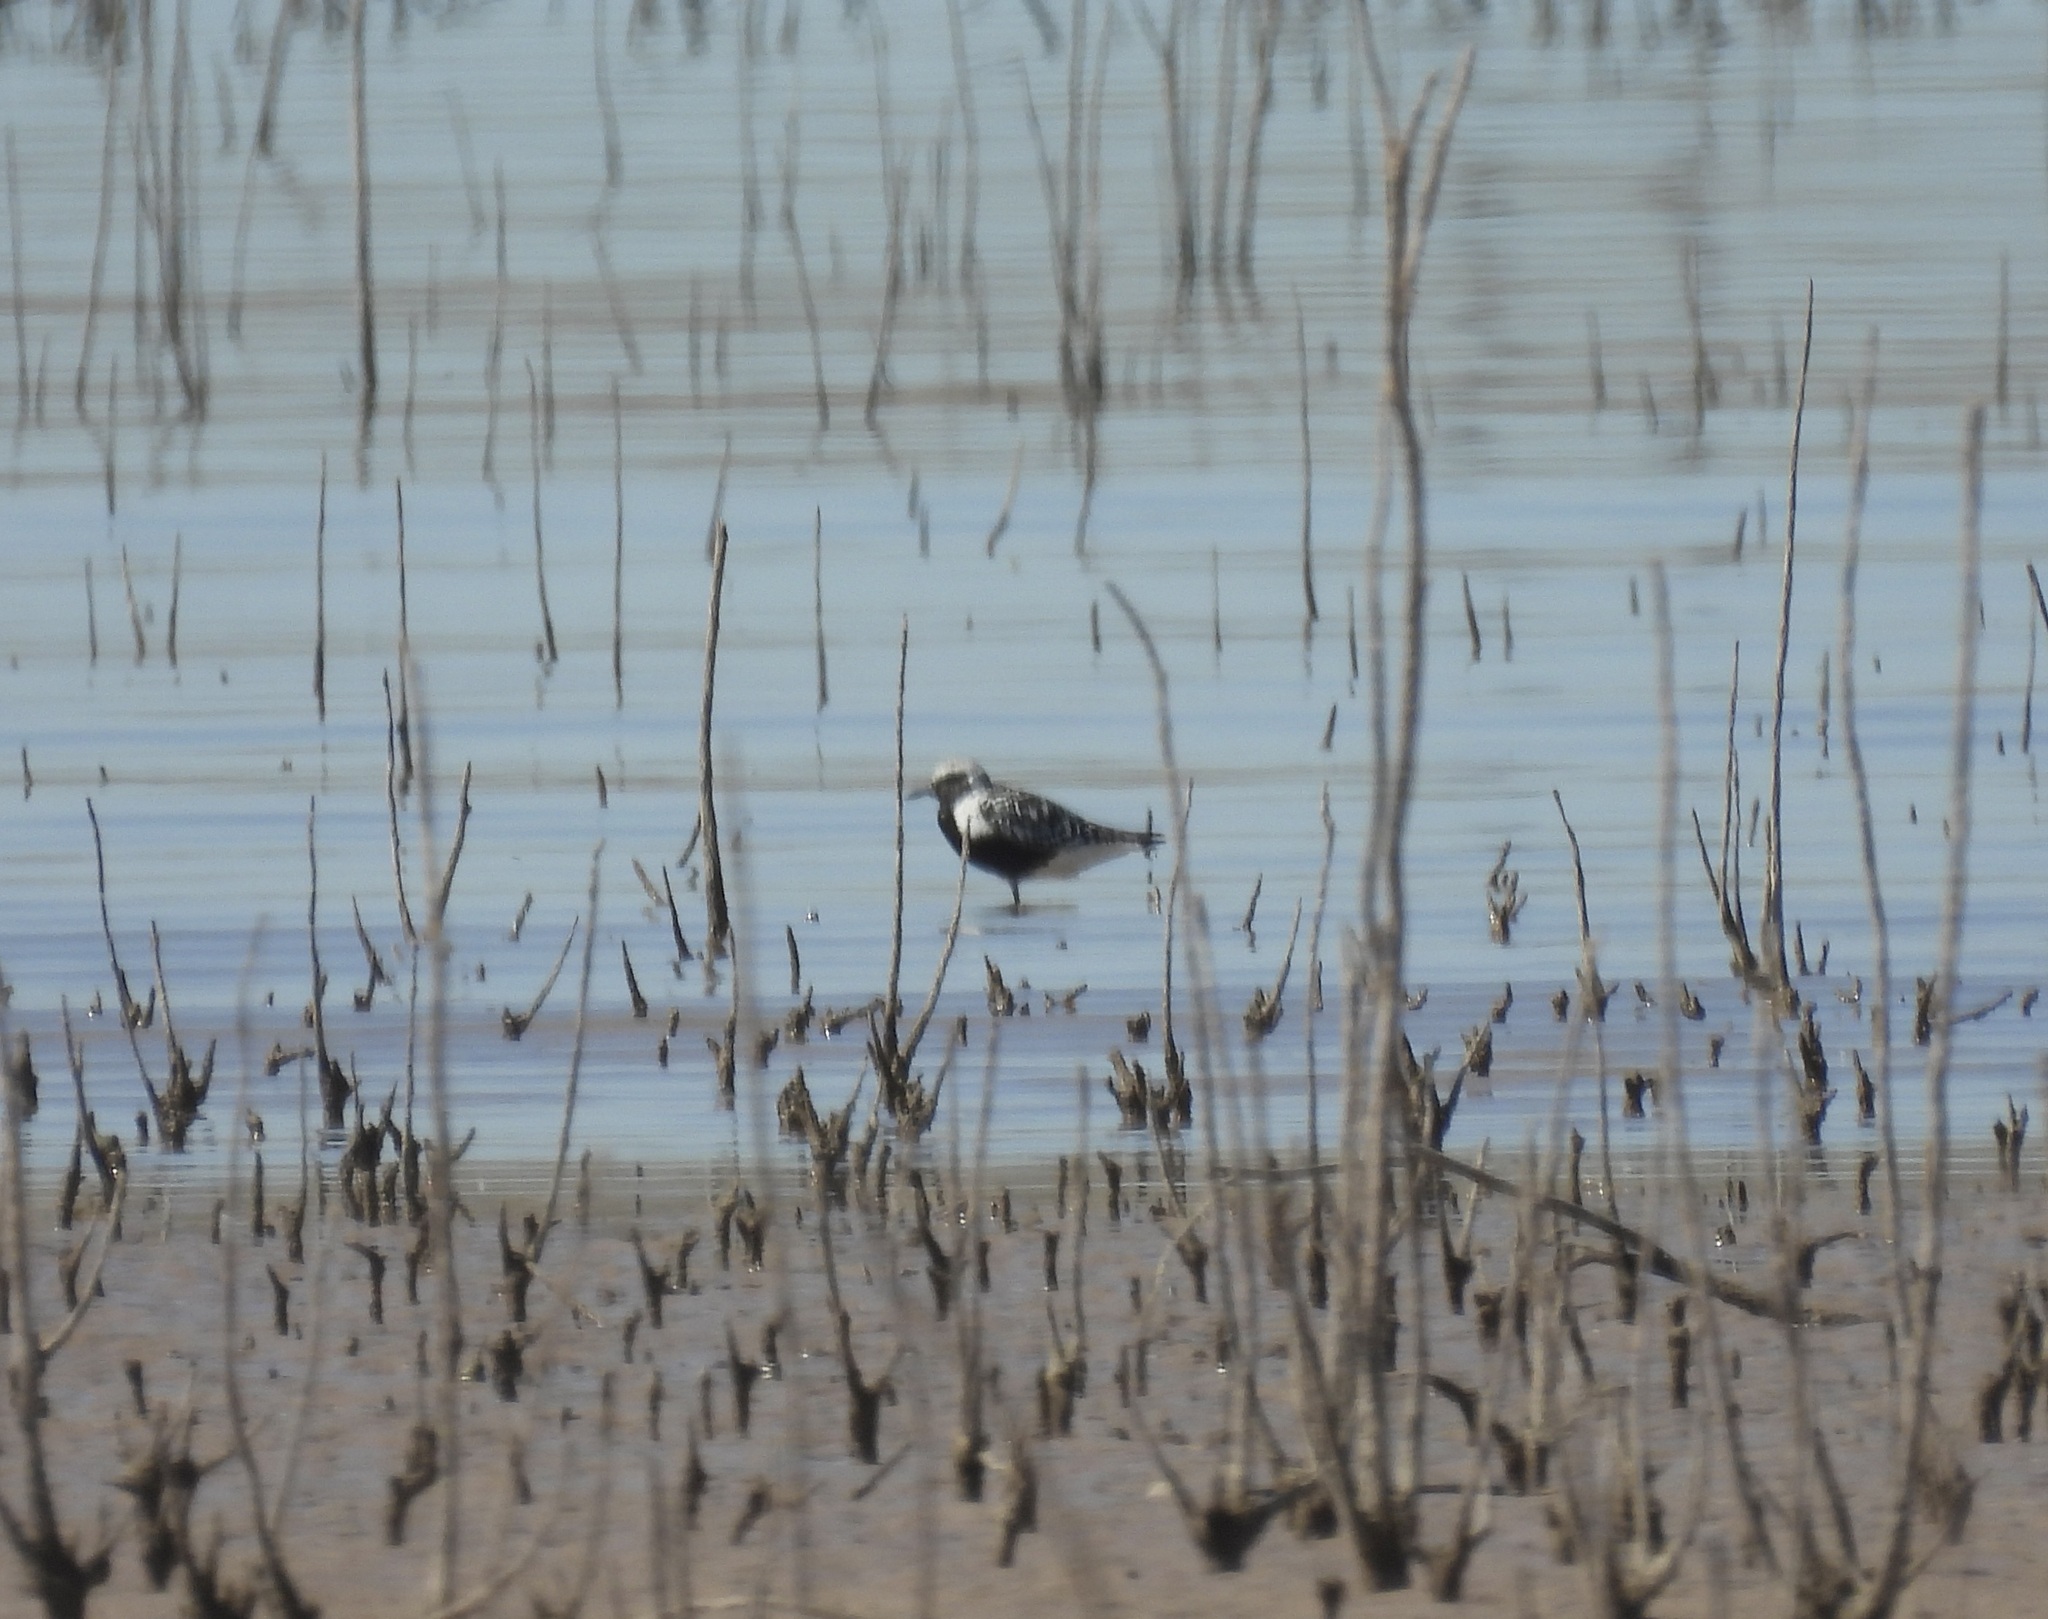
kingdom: Animalia
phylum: Chordata
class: Aves
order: Charadriiformes
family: Charadriidae
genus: Pluvialis
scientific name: Pluvialis squatarola
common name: Grey plover
